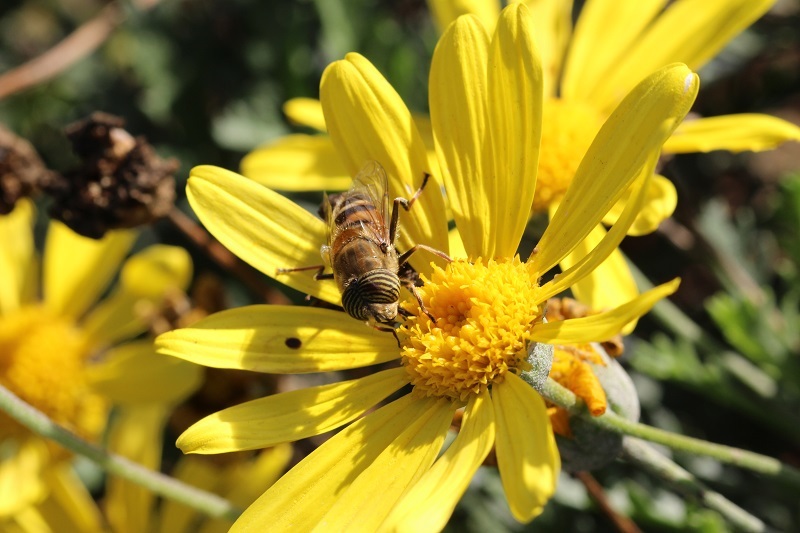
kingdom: Animalia
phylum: Arthropoda
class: Insecta
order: Diptera
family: Syrphidae
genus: Eristalinus
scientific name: Eristalinus taeniops
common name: Syrphid fly
